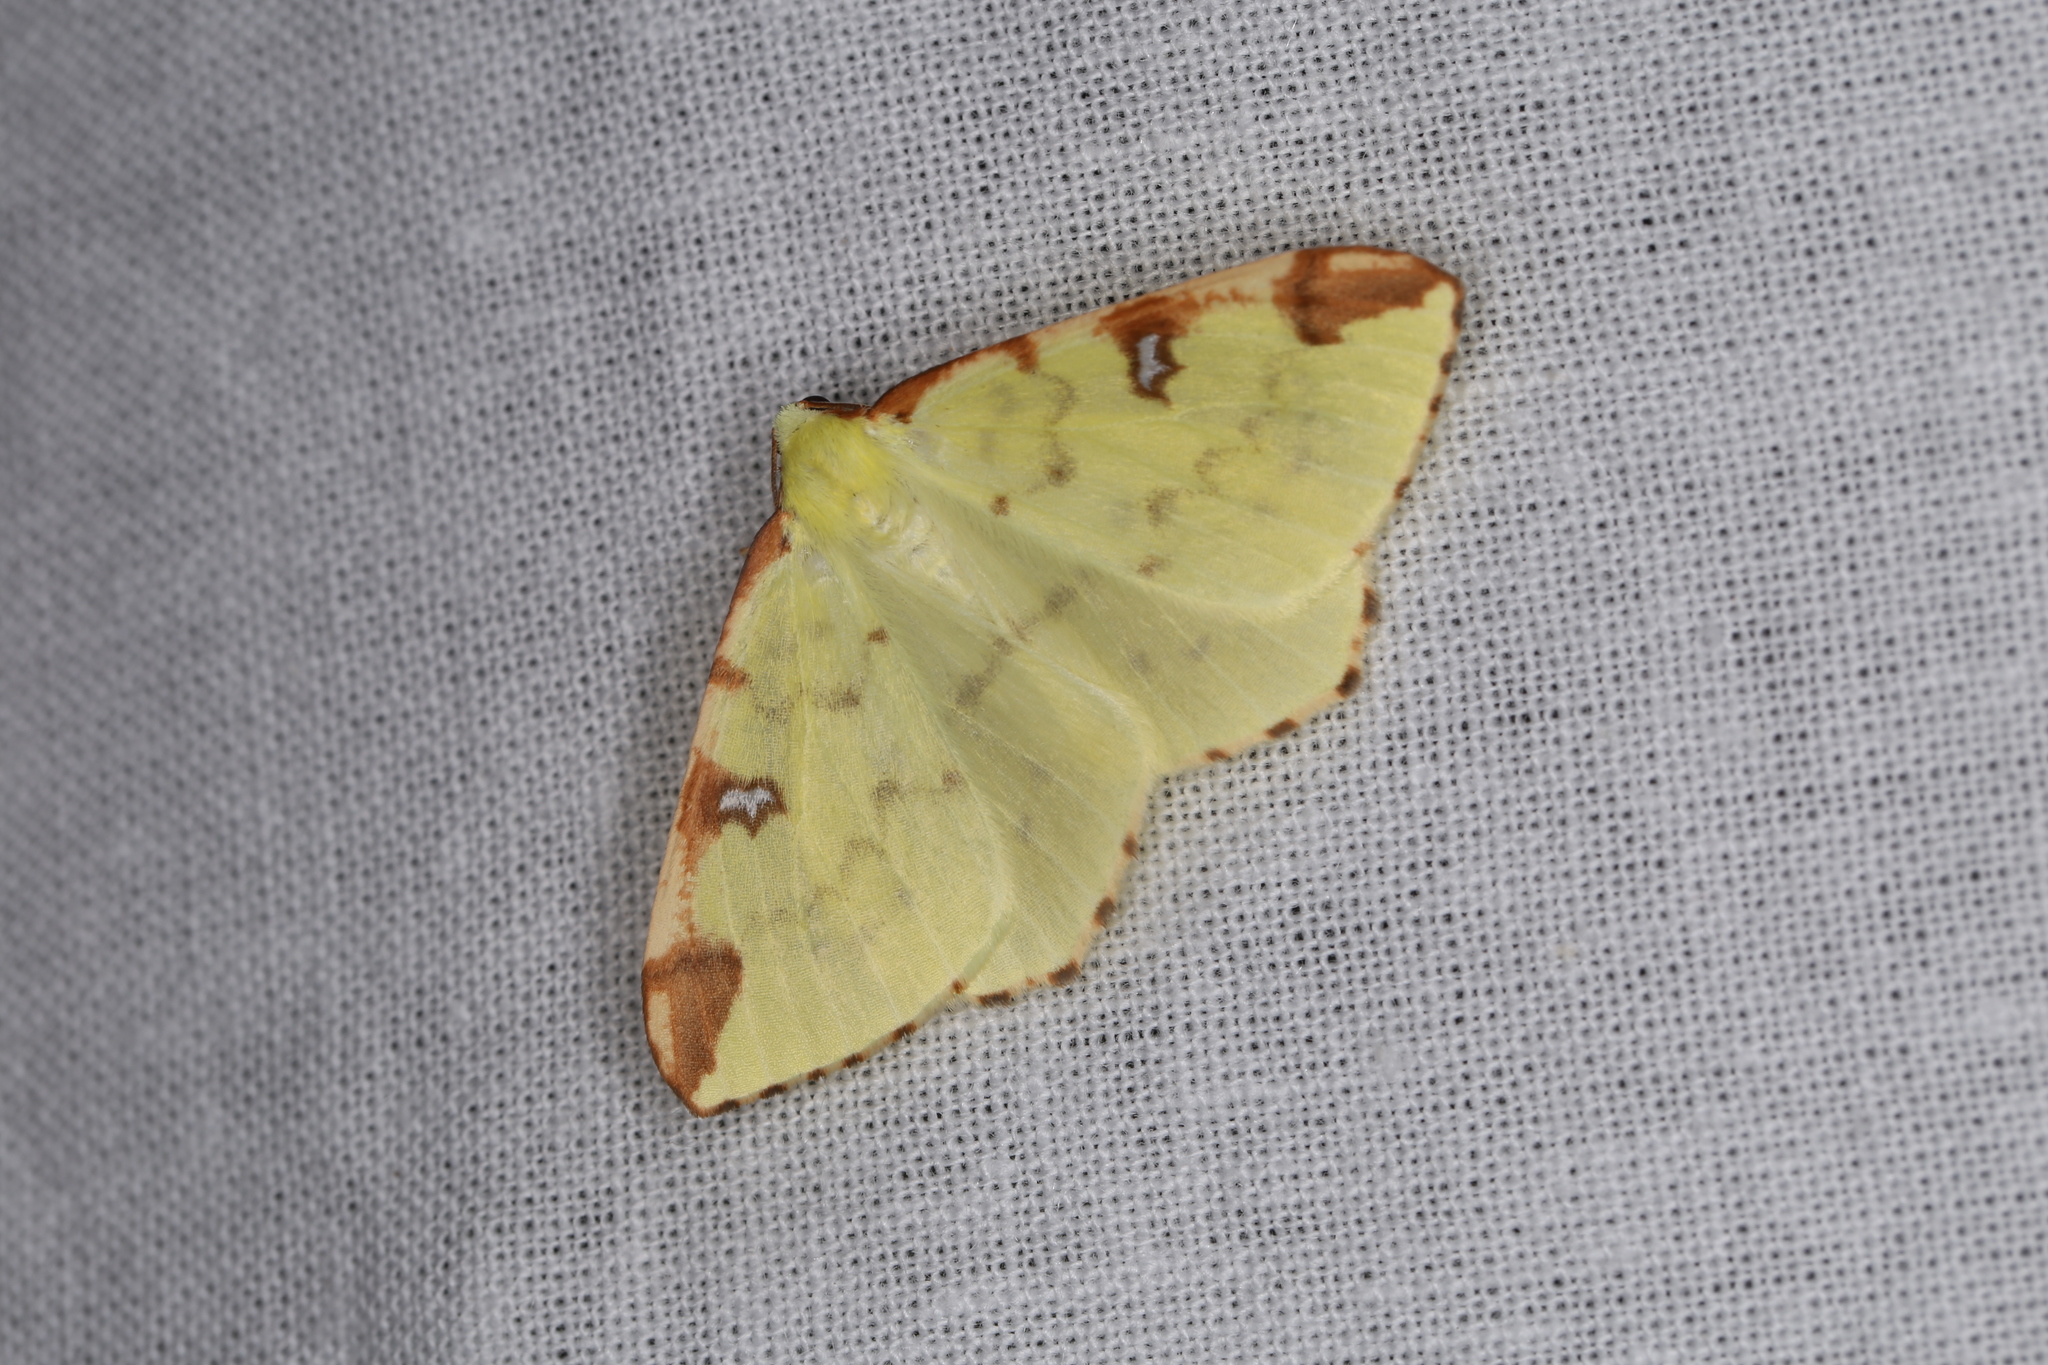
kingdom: Animalia
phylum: Arthropoda
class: Insecta
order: Lepidoptera
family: Geometridae
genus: Opisthograptis
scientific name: Opisthograptis luteolata
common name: Brimstone moth
